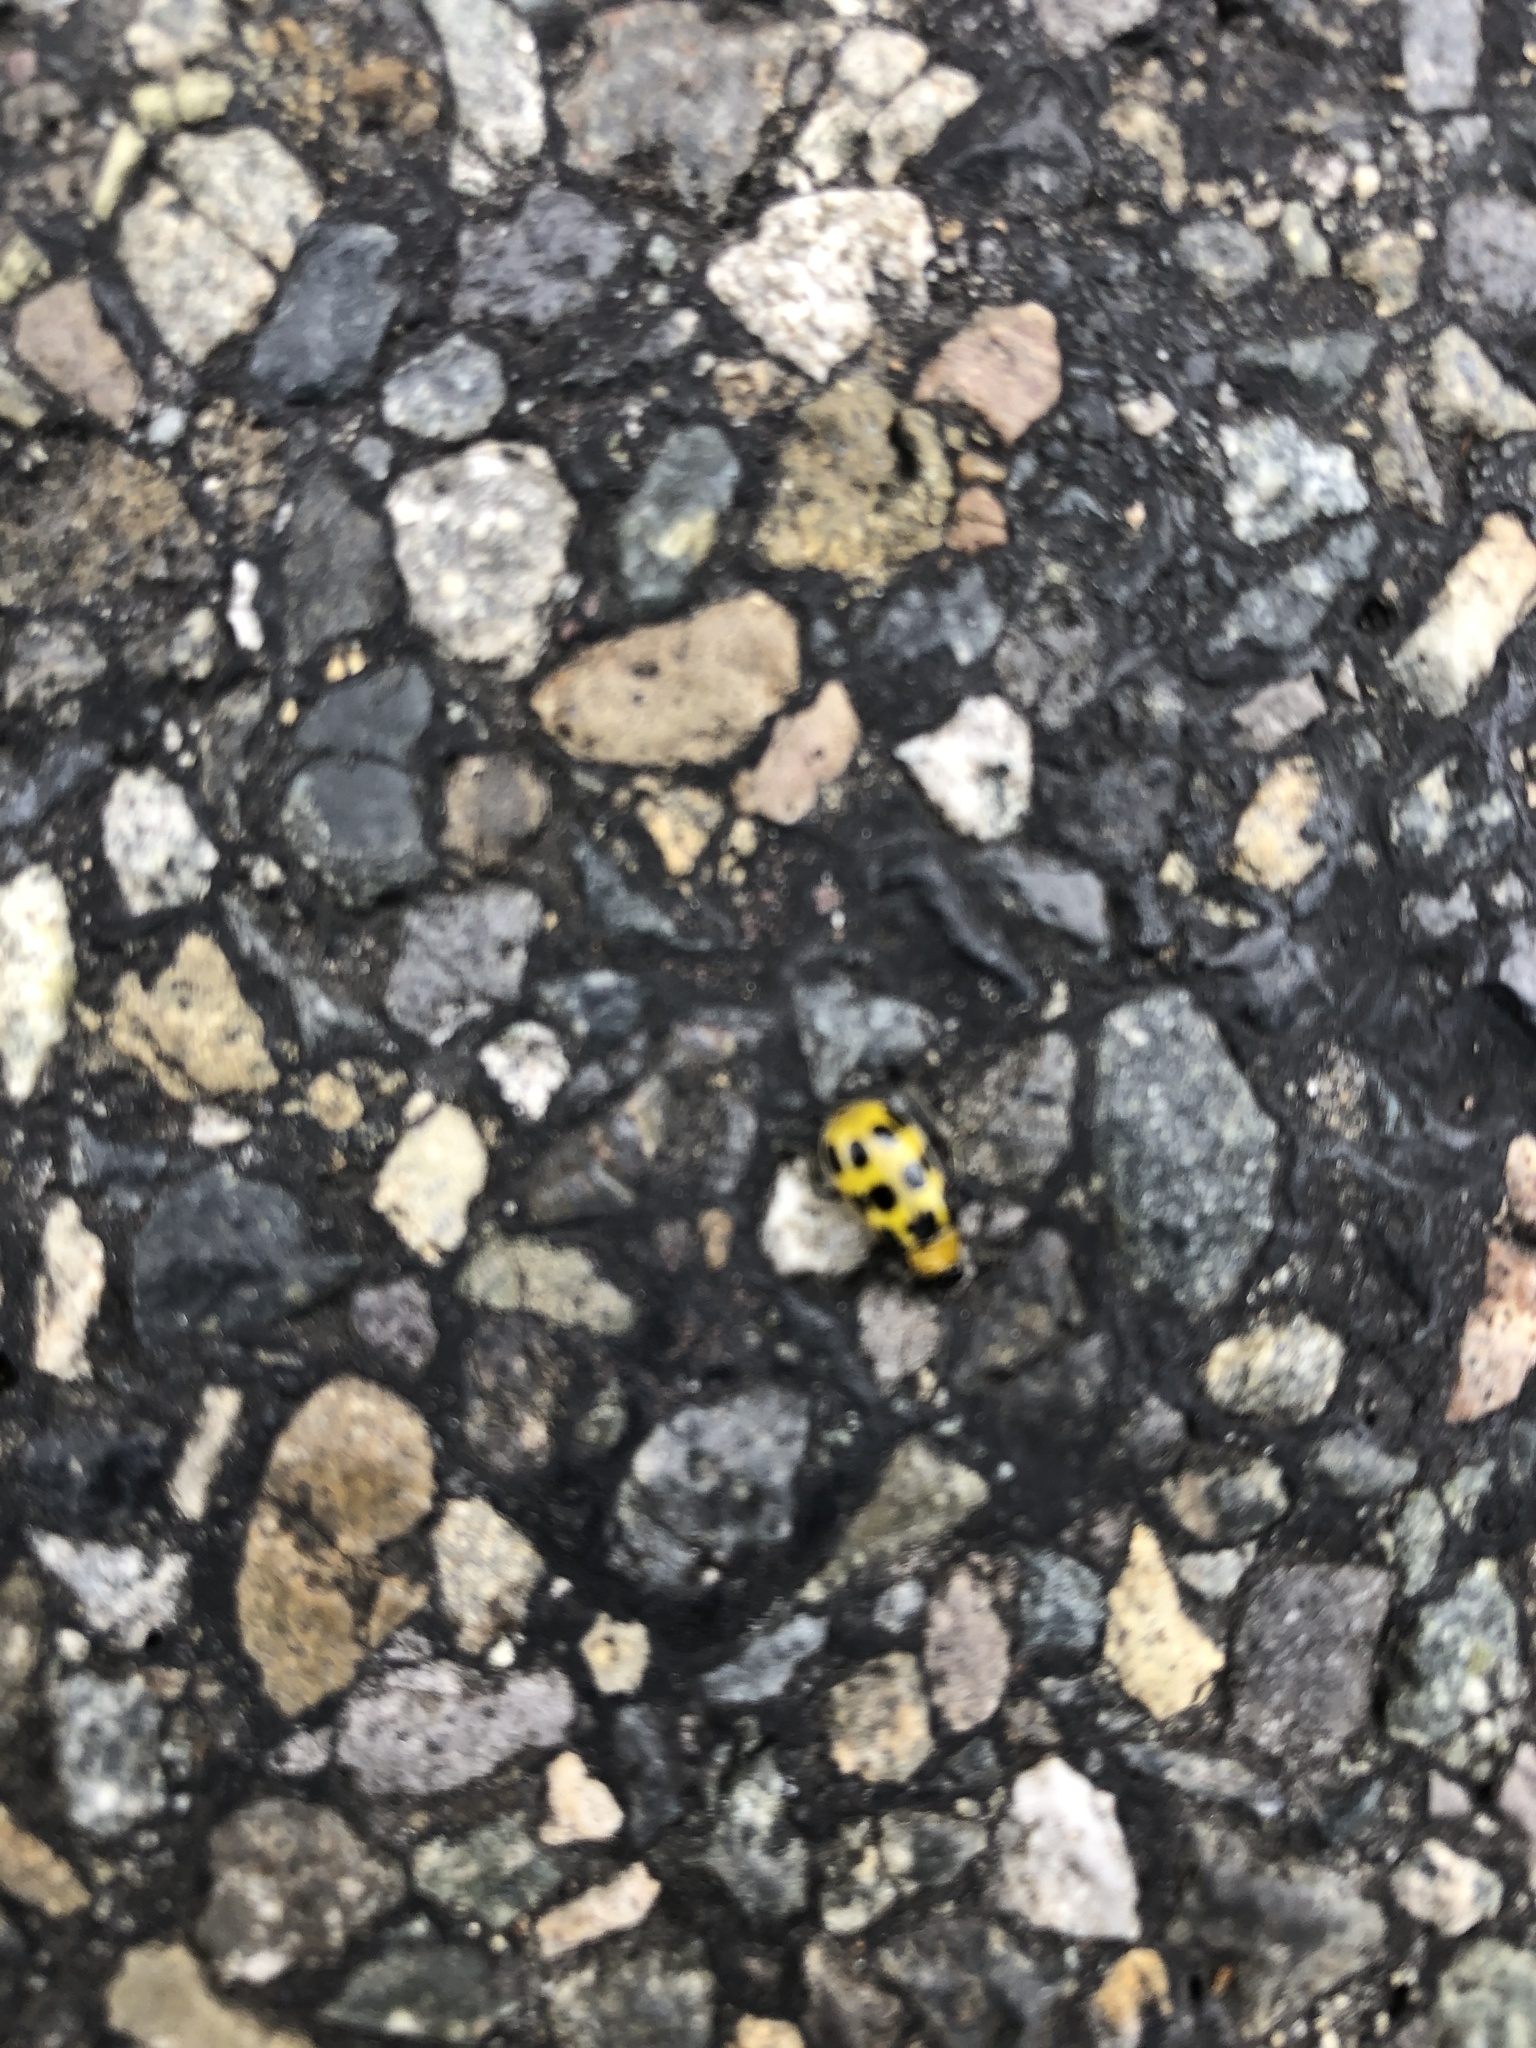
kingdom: Animalia
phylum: Arthropoda
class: Insecta
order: Coleoptera
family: Chrysomelidae
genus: Diabrotica
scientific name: Diabrotica undecimpunctata
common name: Spotted cucumber beetle
